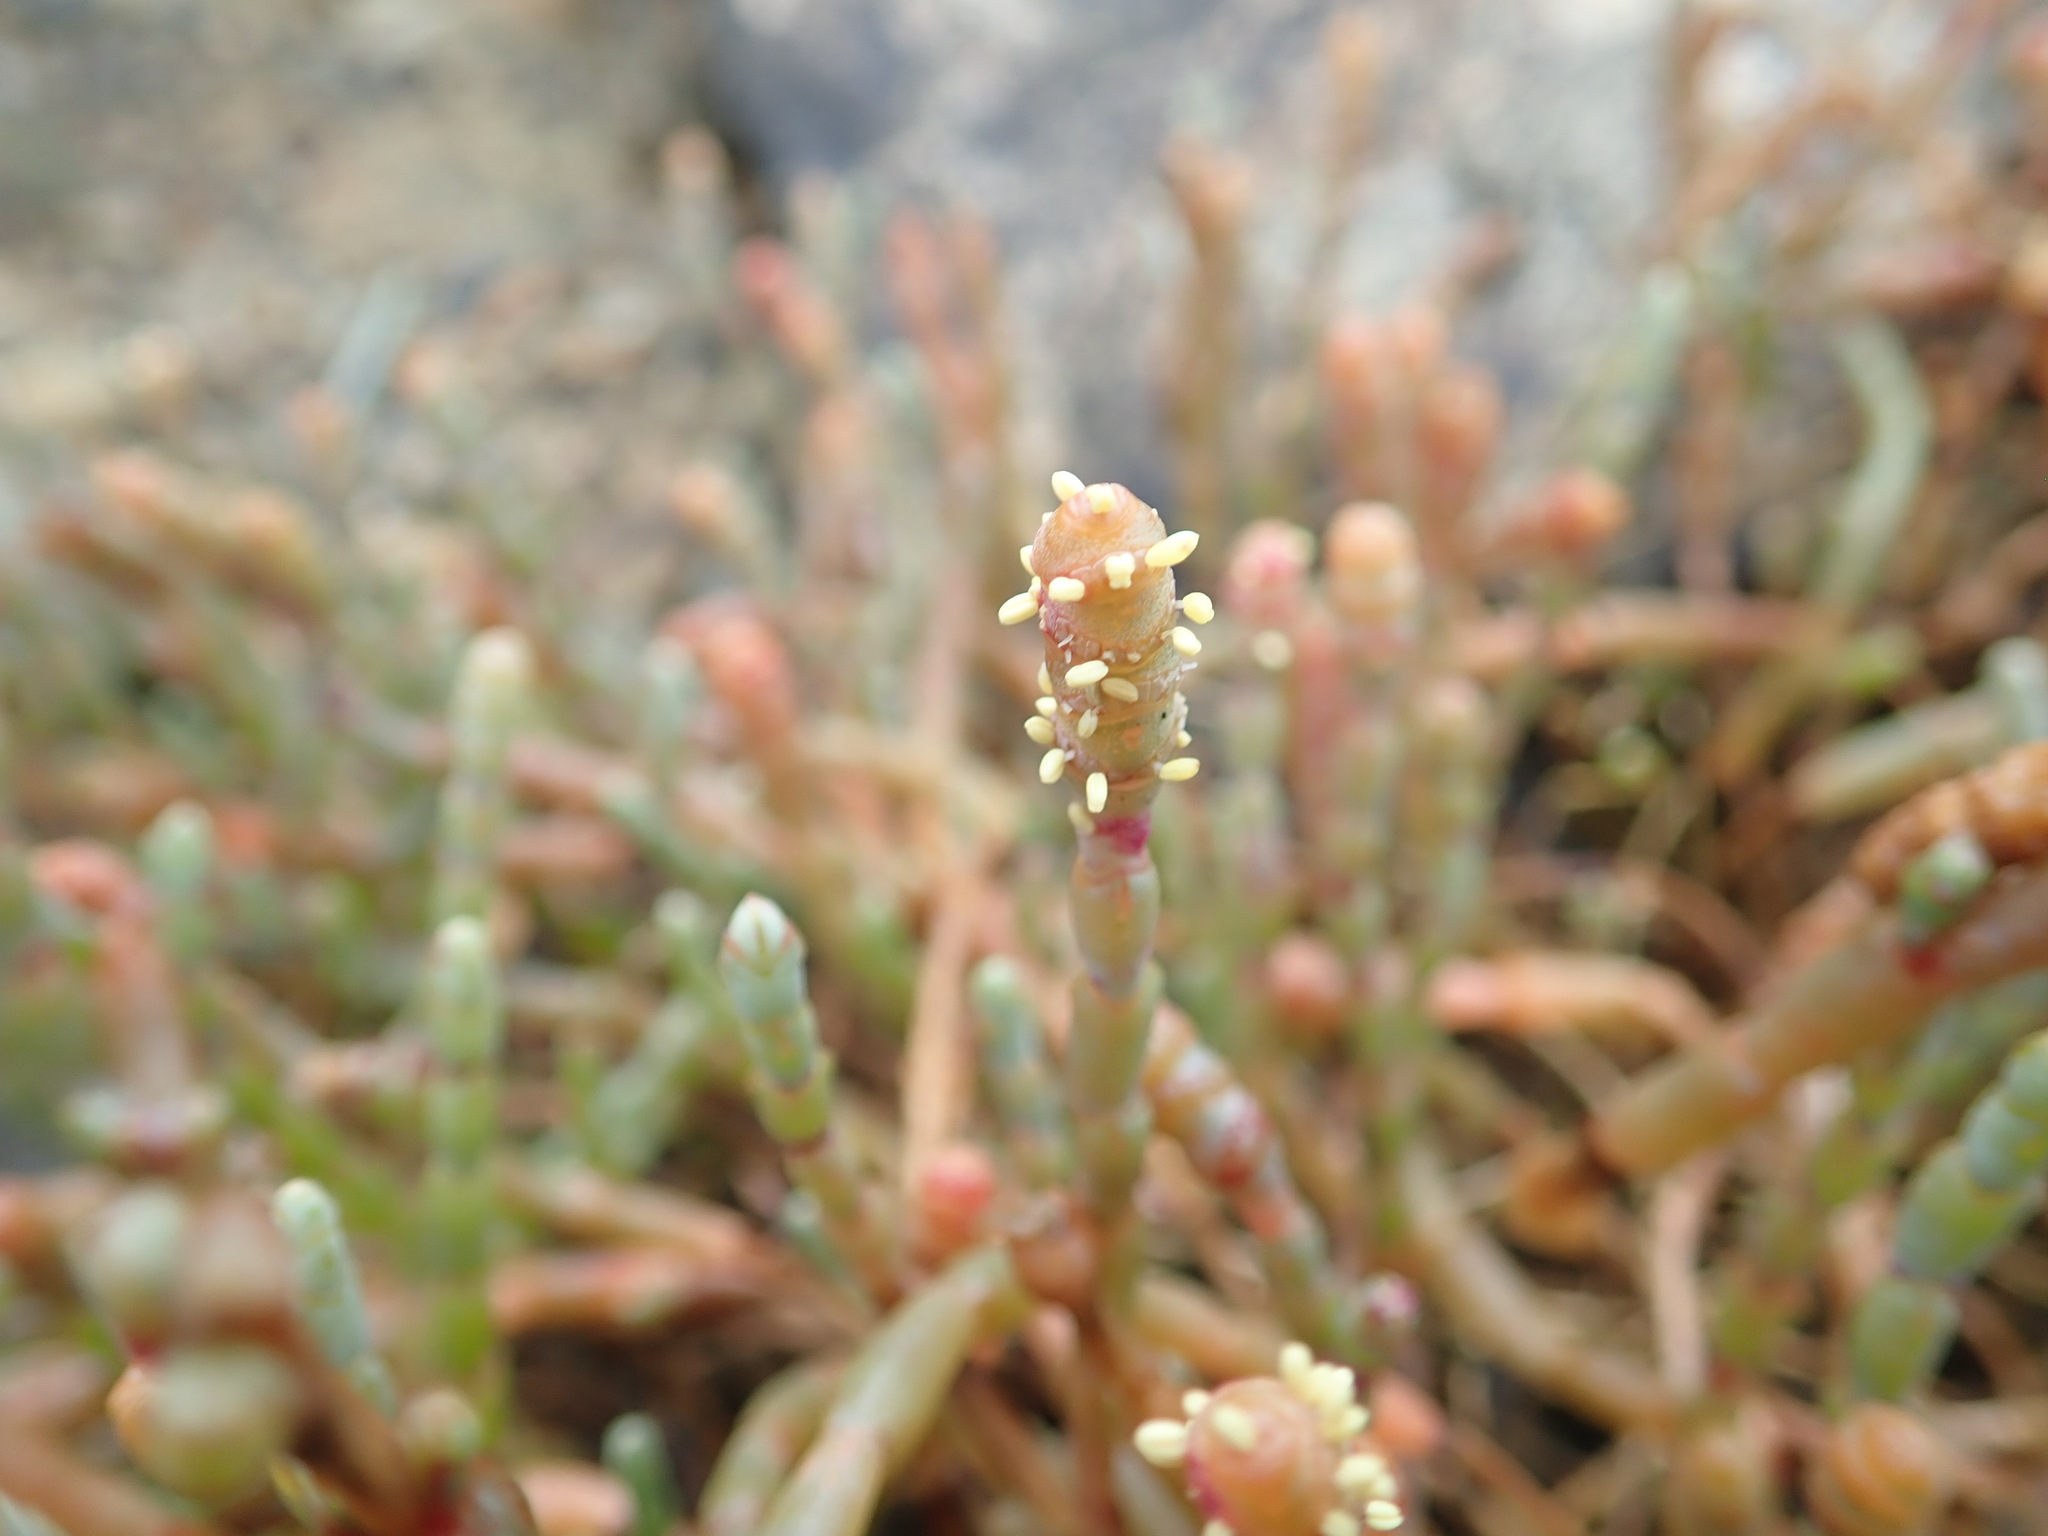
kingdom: Plantae
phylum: Tracheophyta
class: Magnoliopsida
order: Caryophyllales
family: Amaranthaceae
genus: Salicornia
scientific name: Salicornia quinqueflora
